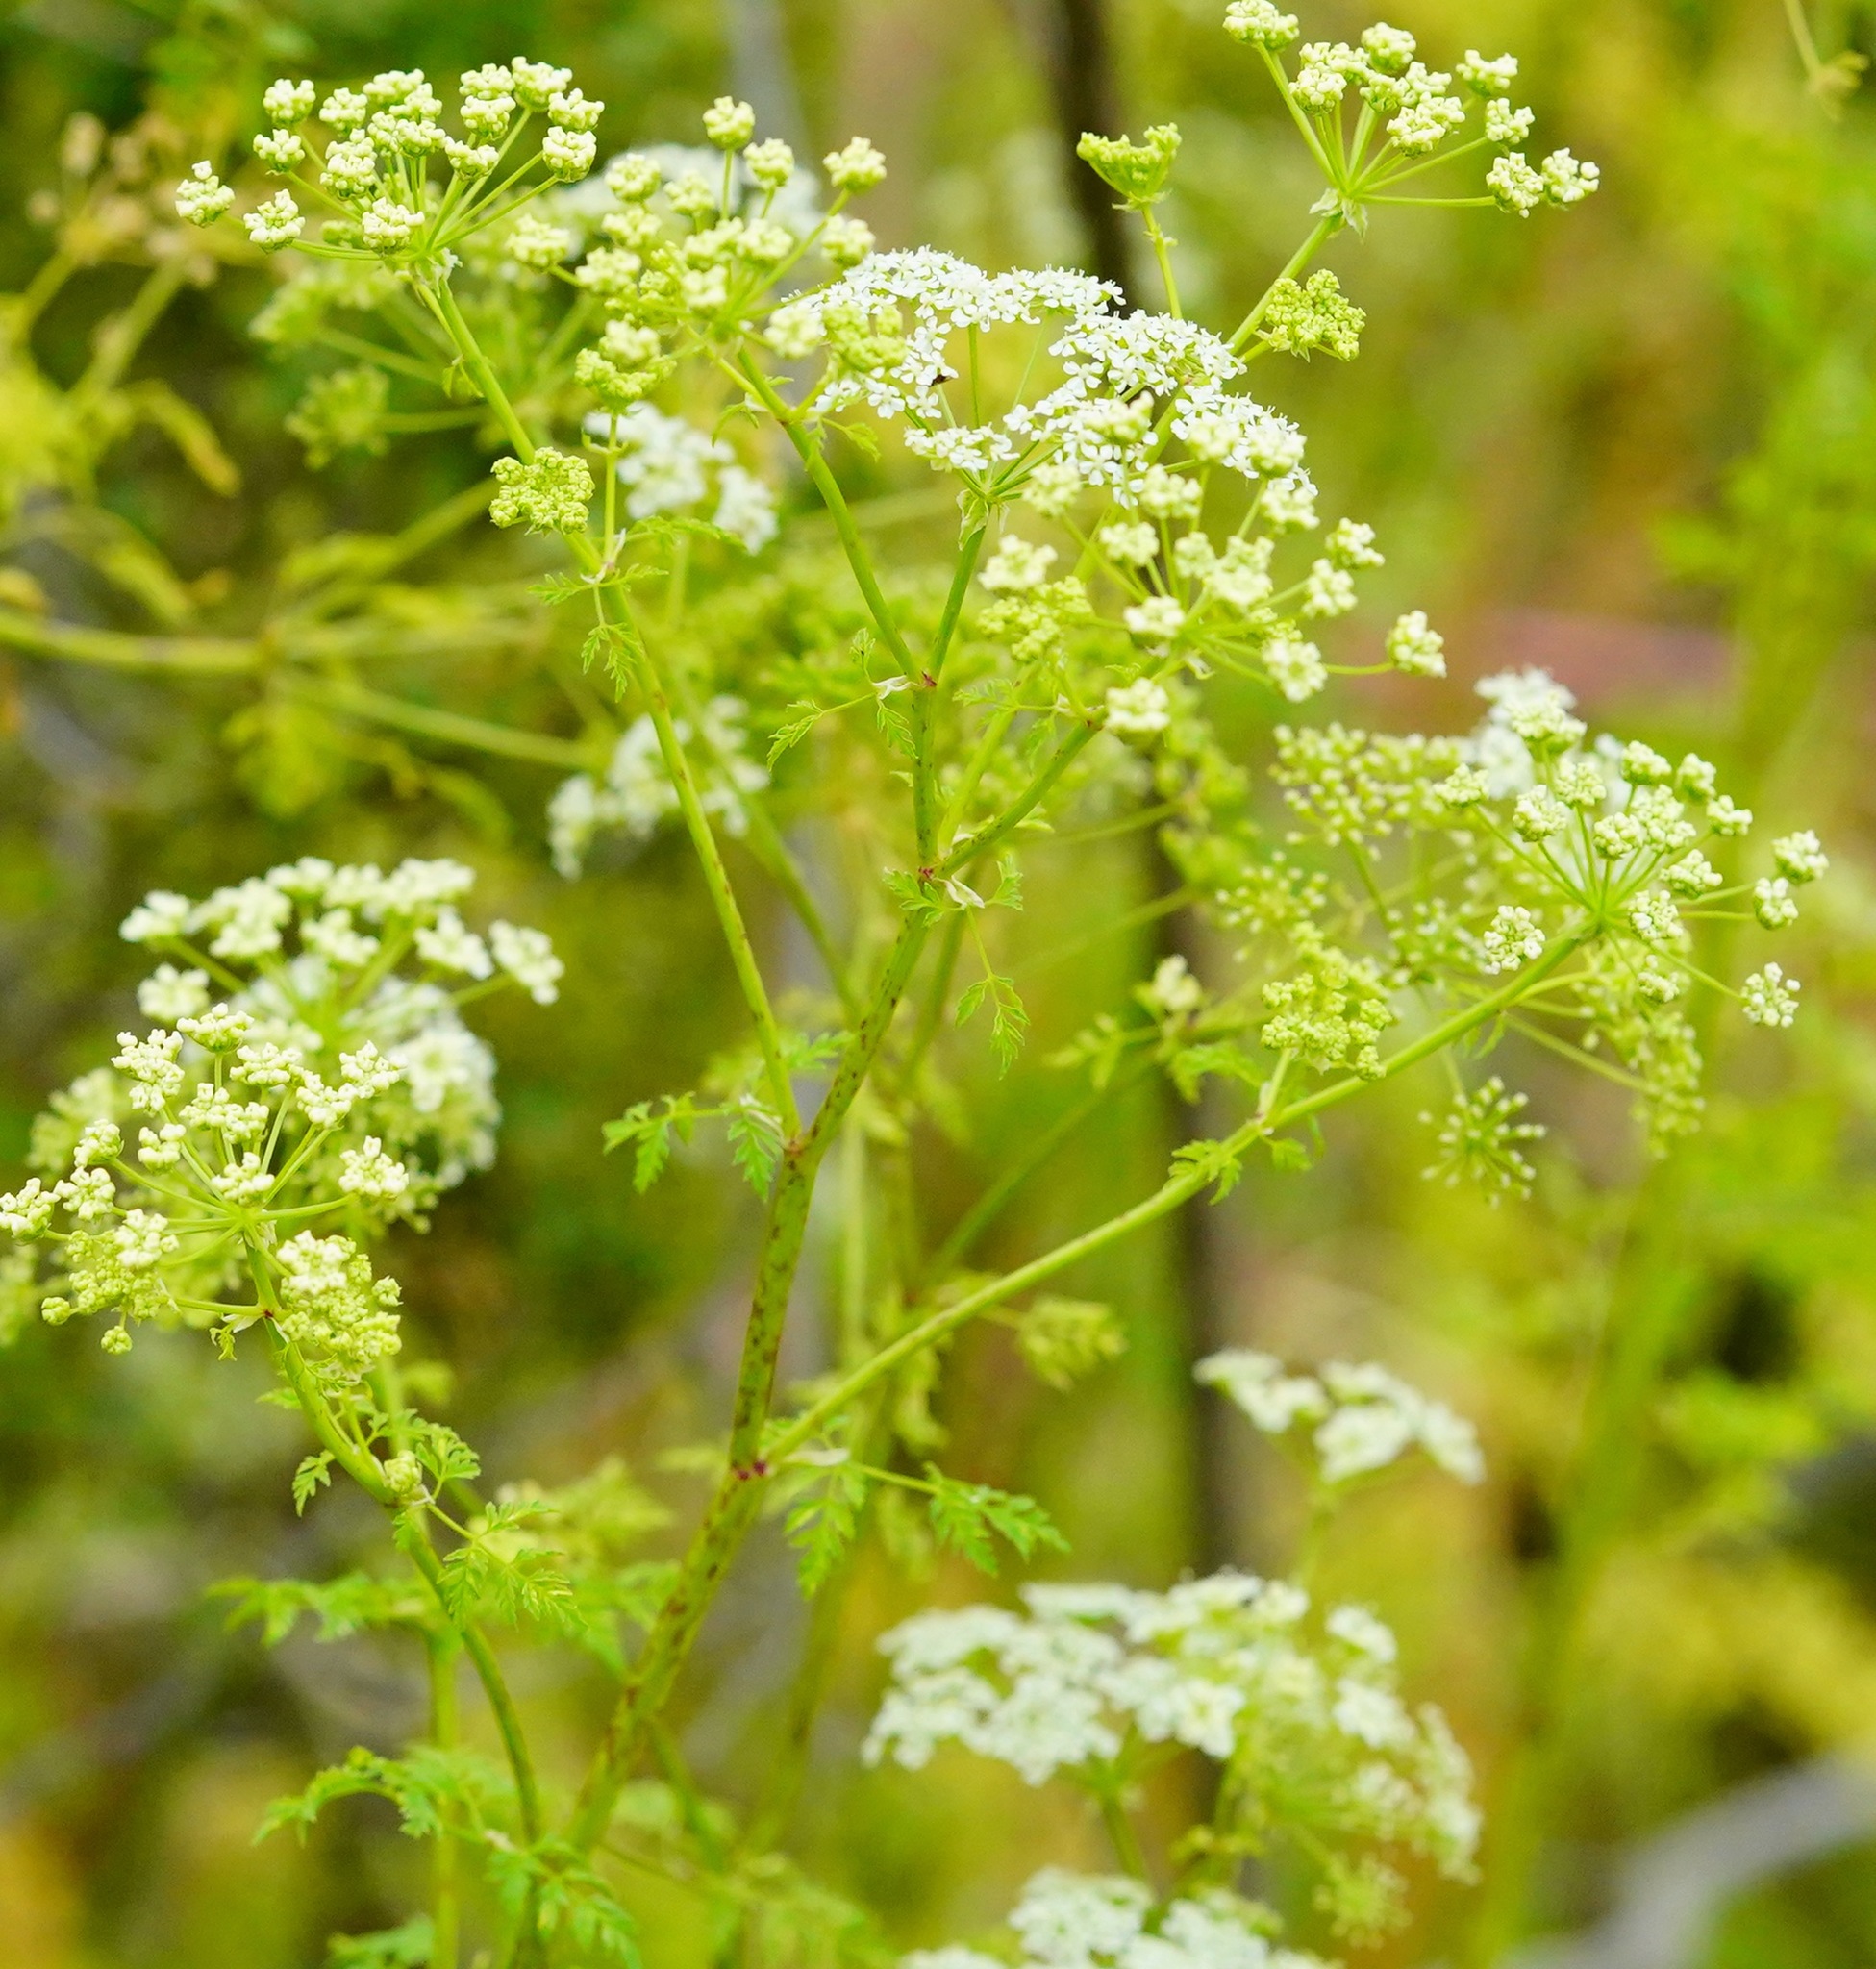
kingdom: Plantae
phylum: Tracheophyta
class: Magnoliopsida
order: Apiales
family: Apiaceae
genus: Conium
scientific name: Conium maculatum
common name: Hemlock
